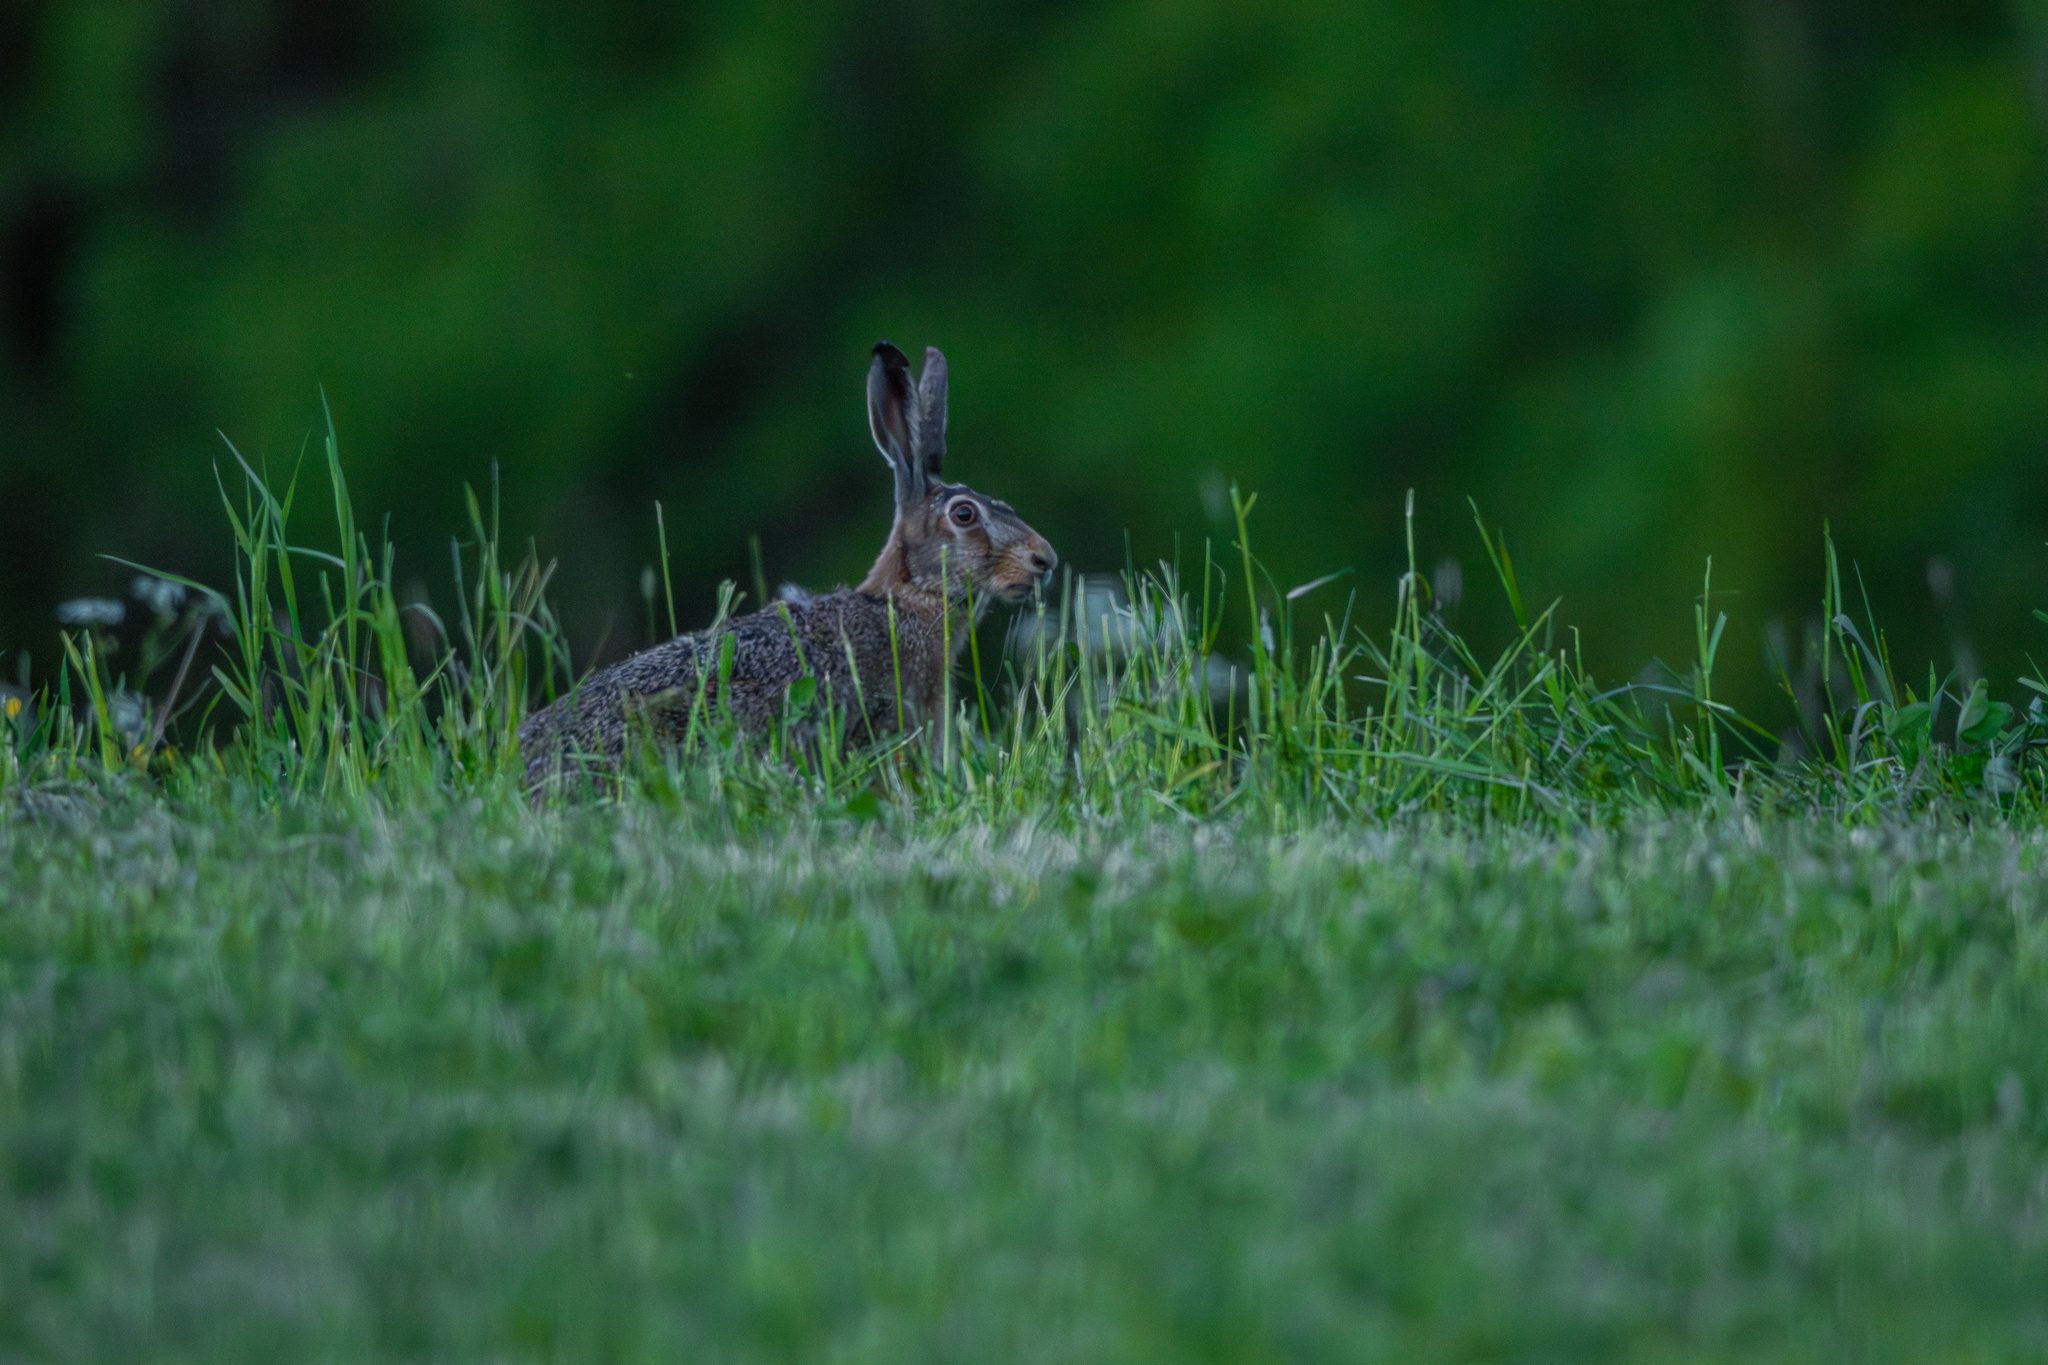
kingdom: Animalia
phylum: Chordata
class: Mammalia
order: Lagomorpha
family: Leporidae
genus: Lepus
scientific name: Lepus europaeus
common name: European hare
